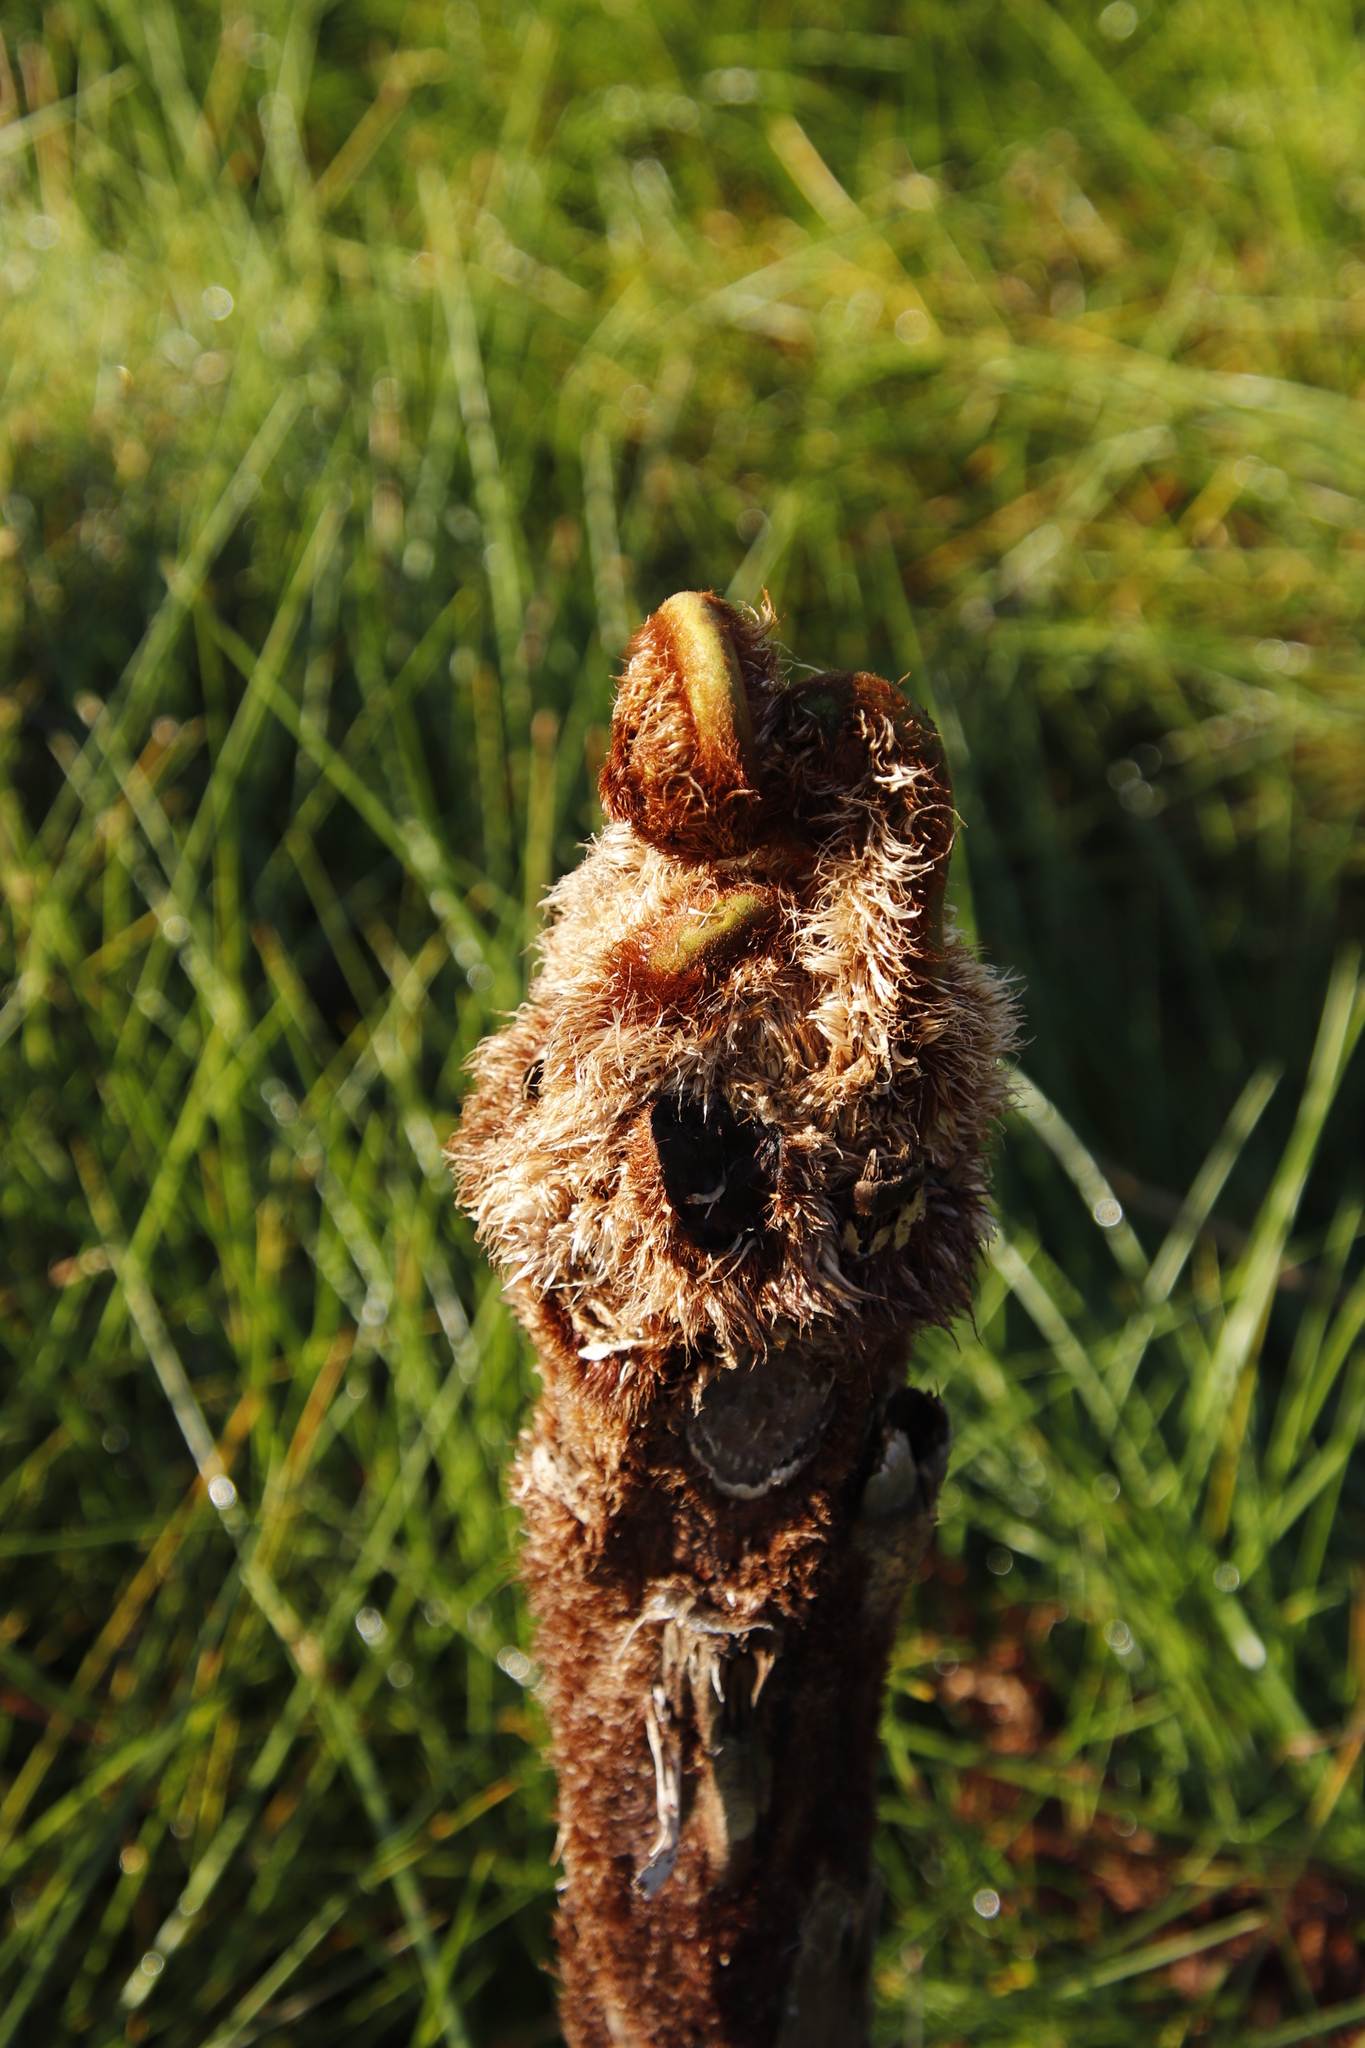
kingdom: Plantae
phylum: Tracheophyta
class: Polypodiopsida
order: Cyatheales
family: Cyatheaceae
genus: Sphaeropteris
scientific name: Sphaeropteris cooperi
